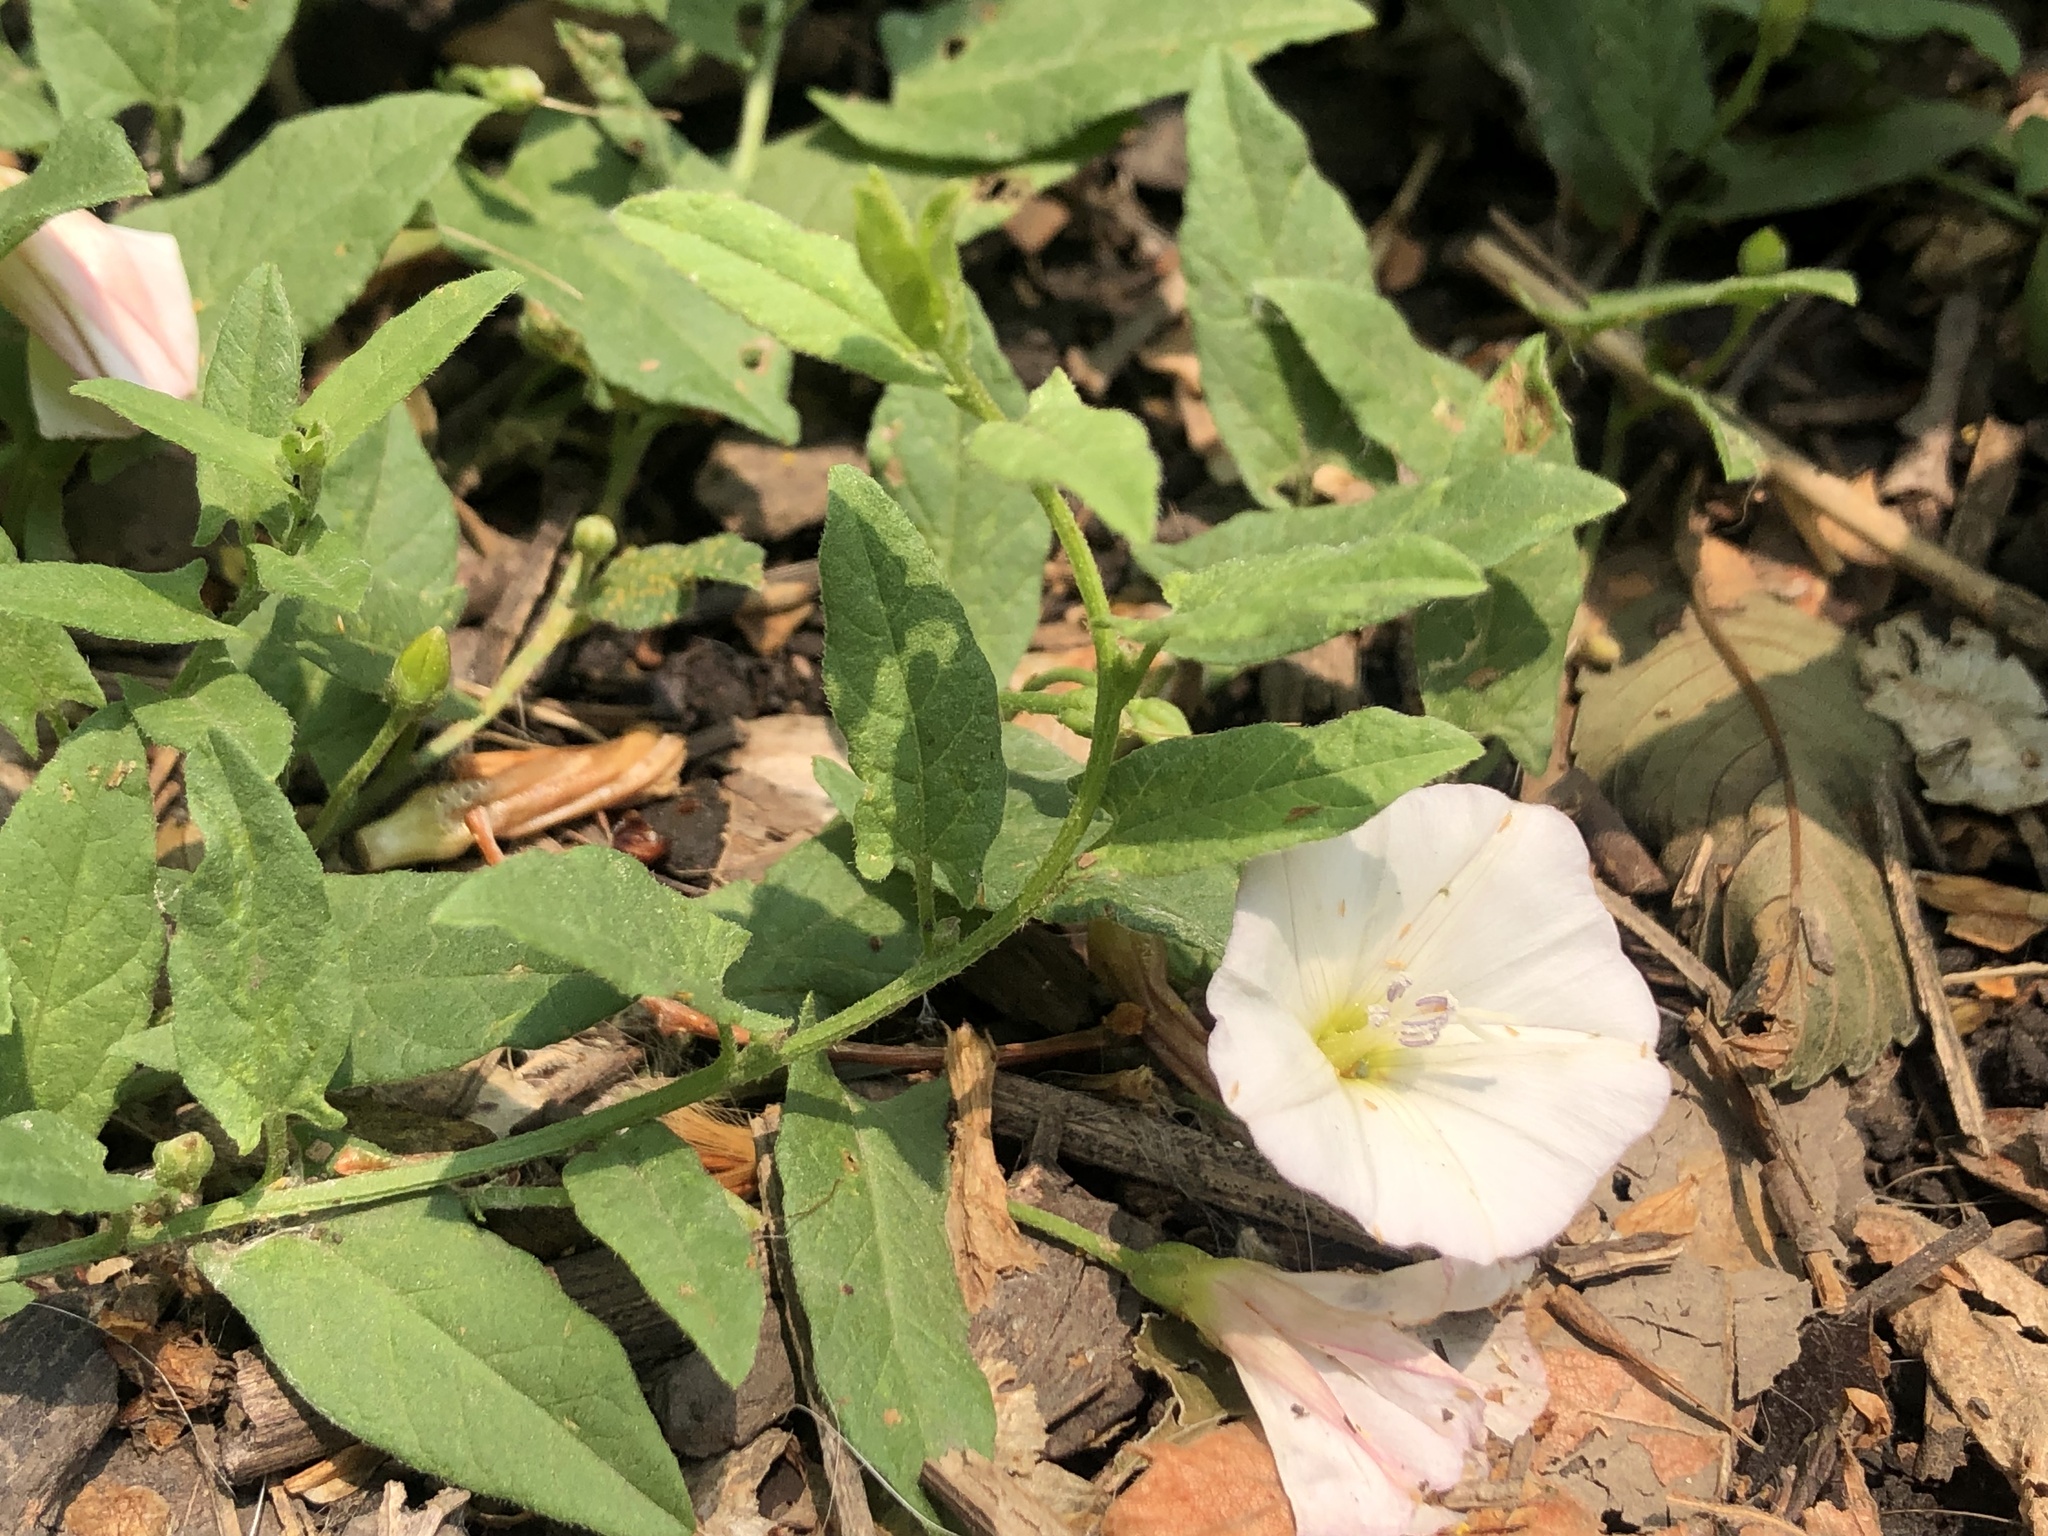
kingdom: Plantae
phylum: Tracheophyta
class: Magnoliopsida
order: Solanales
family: Convolvulaceae
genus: Convolvulus
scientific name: Convolvulus arvensis
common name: Field bindweed
